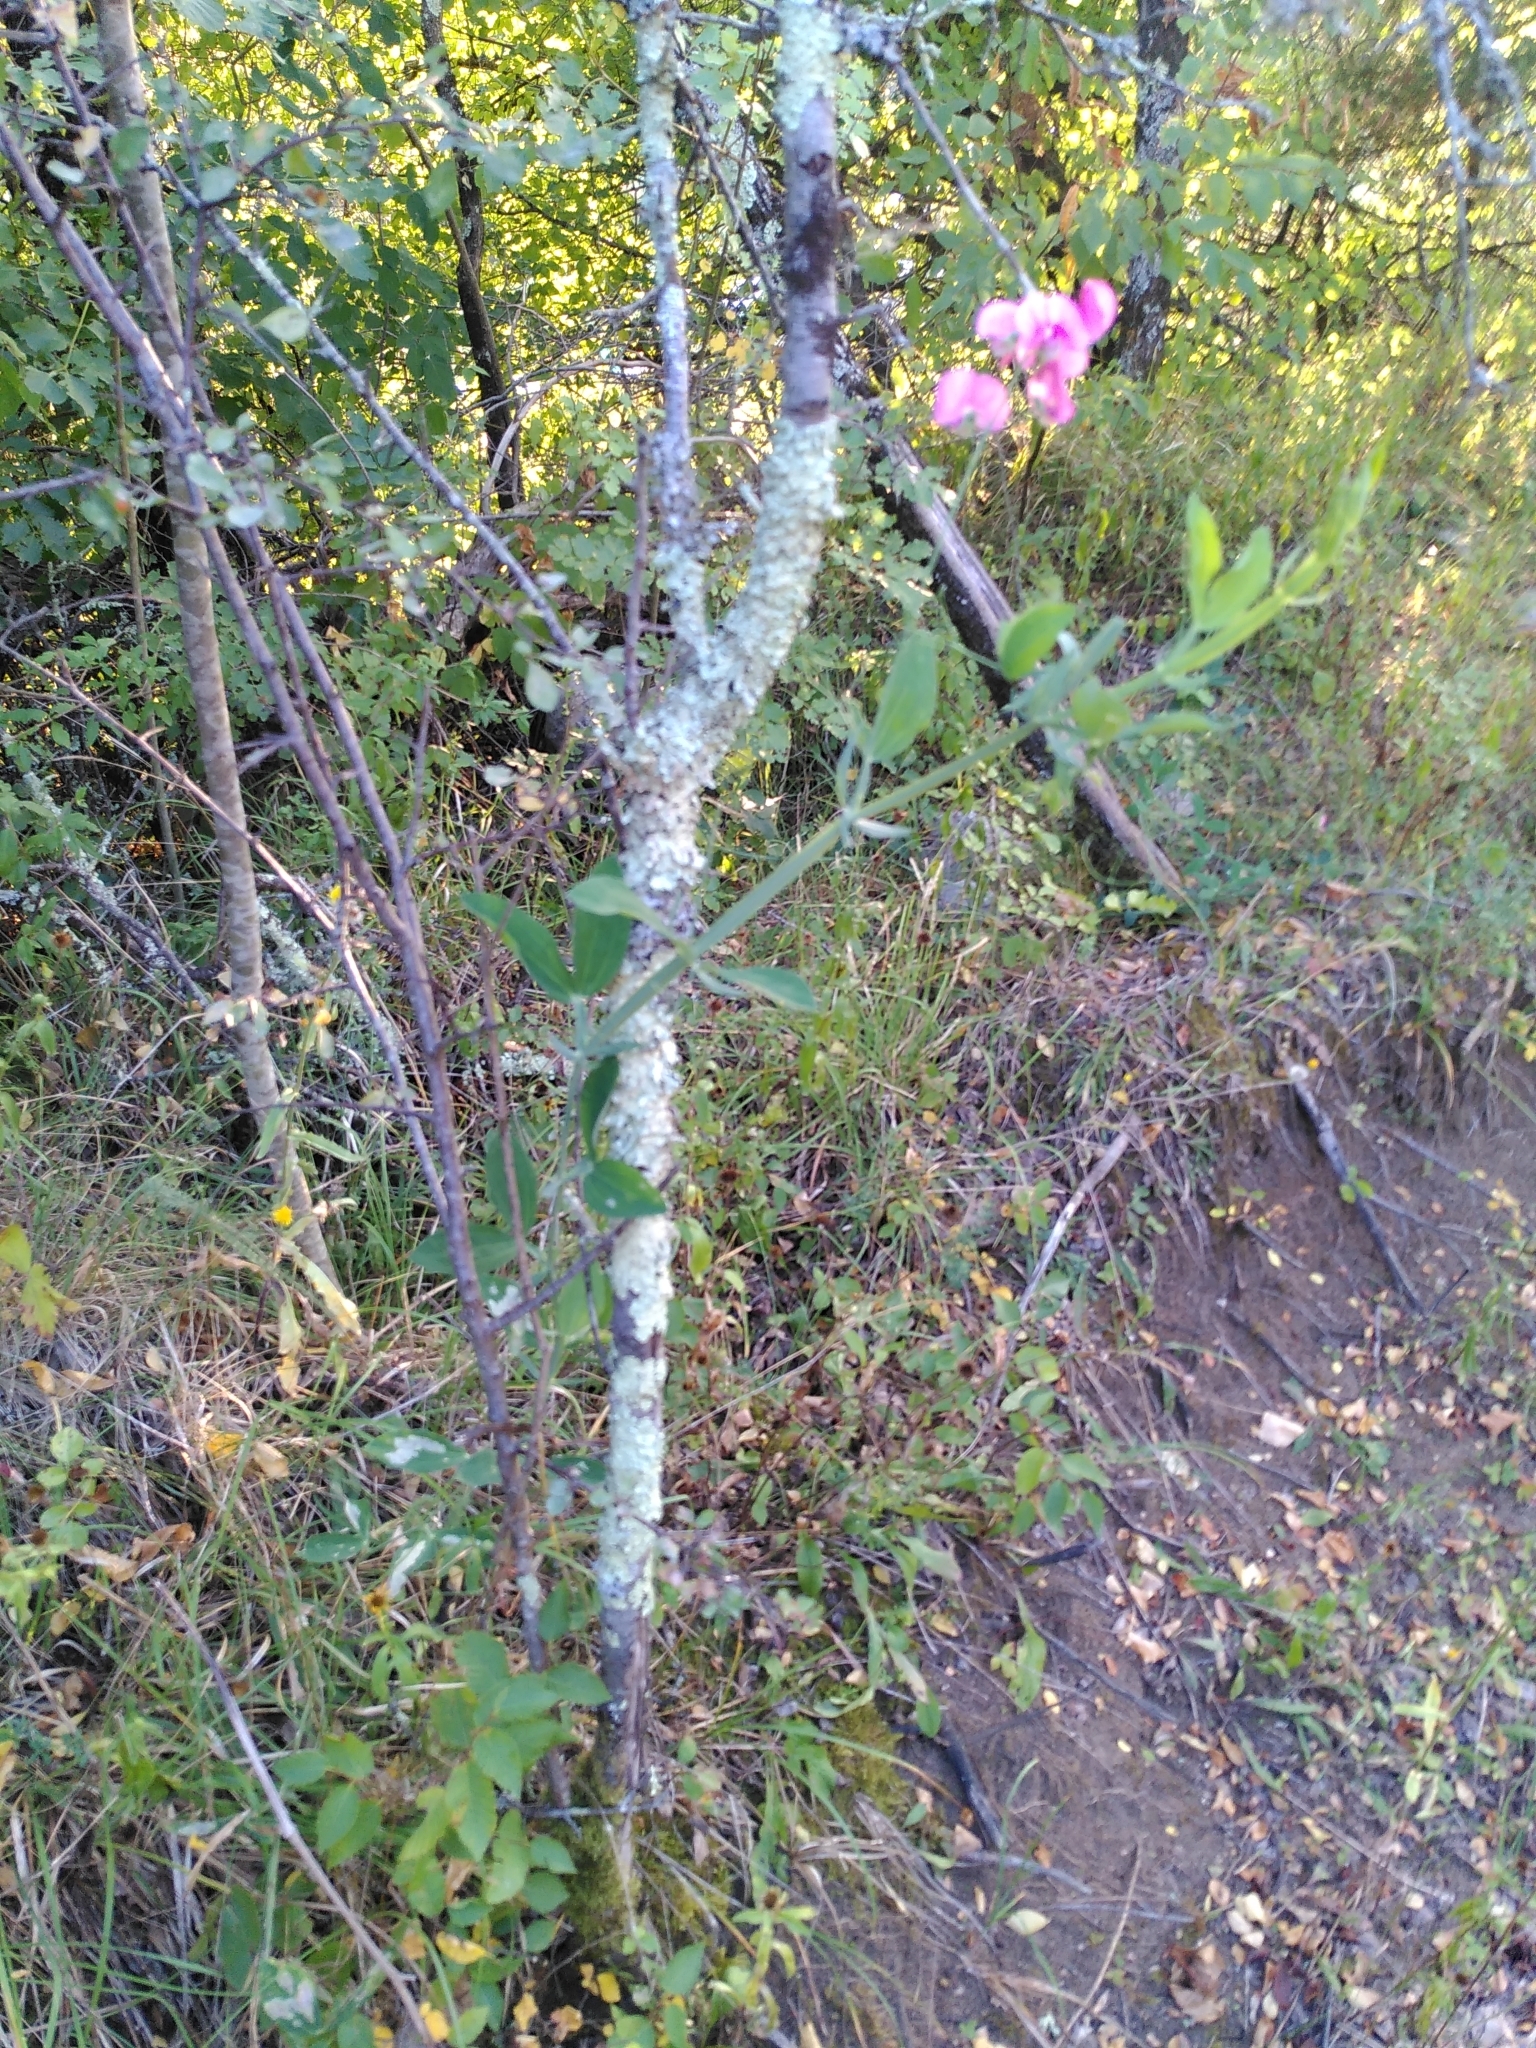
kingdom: Plantae
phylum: Tracheophyta
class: Magnoliopsida
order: Fabales
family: Fabaceae
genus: Lathyrus
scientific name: Lathyrus latifolius
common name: Perennial pea
